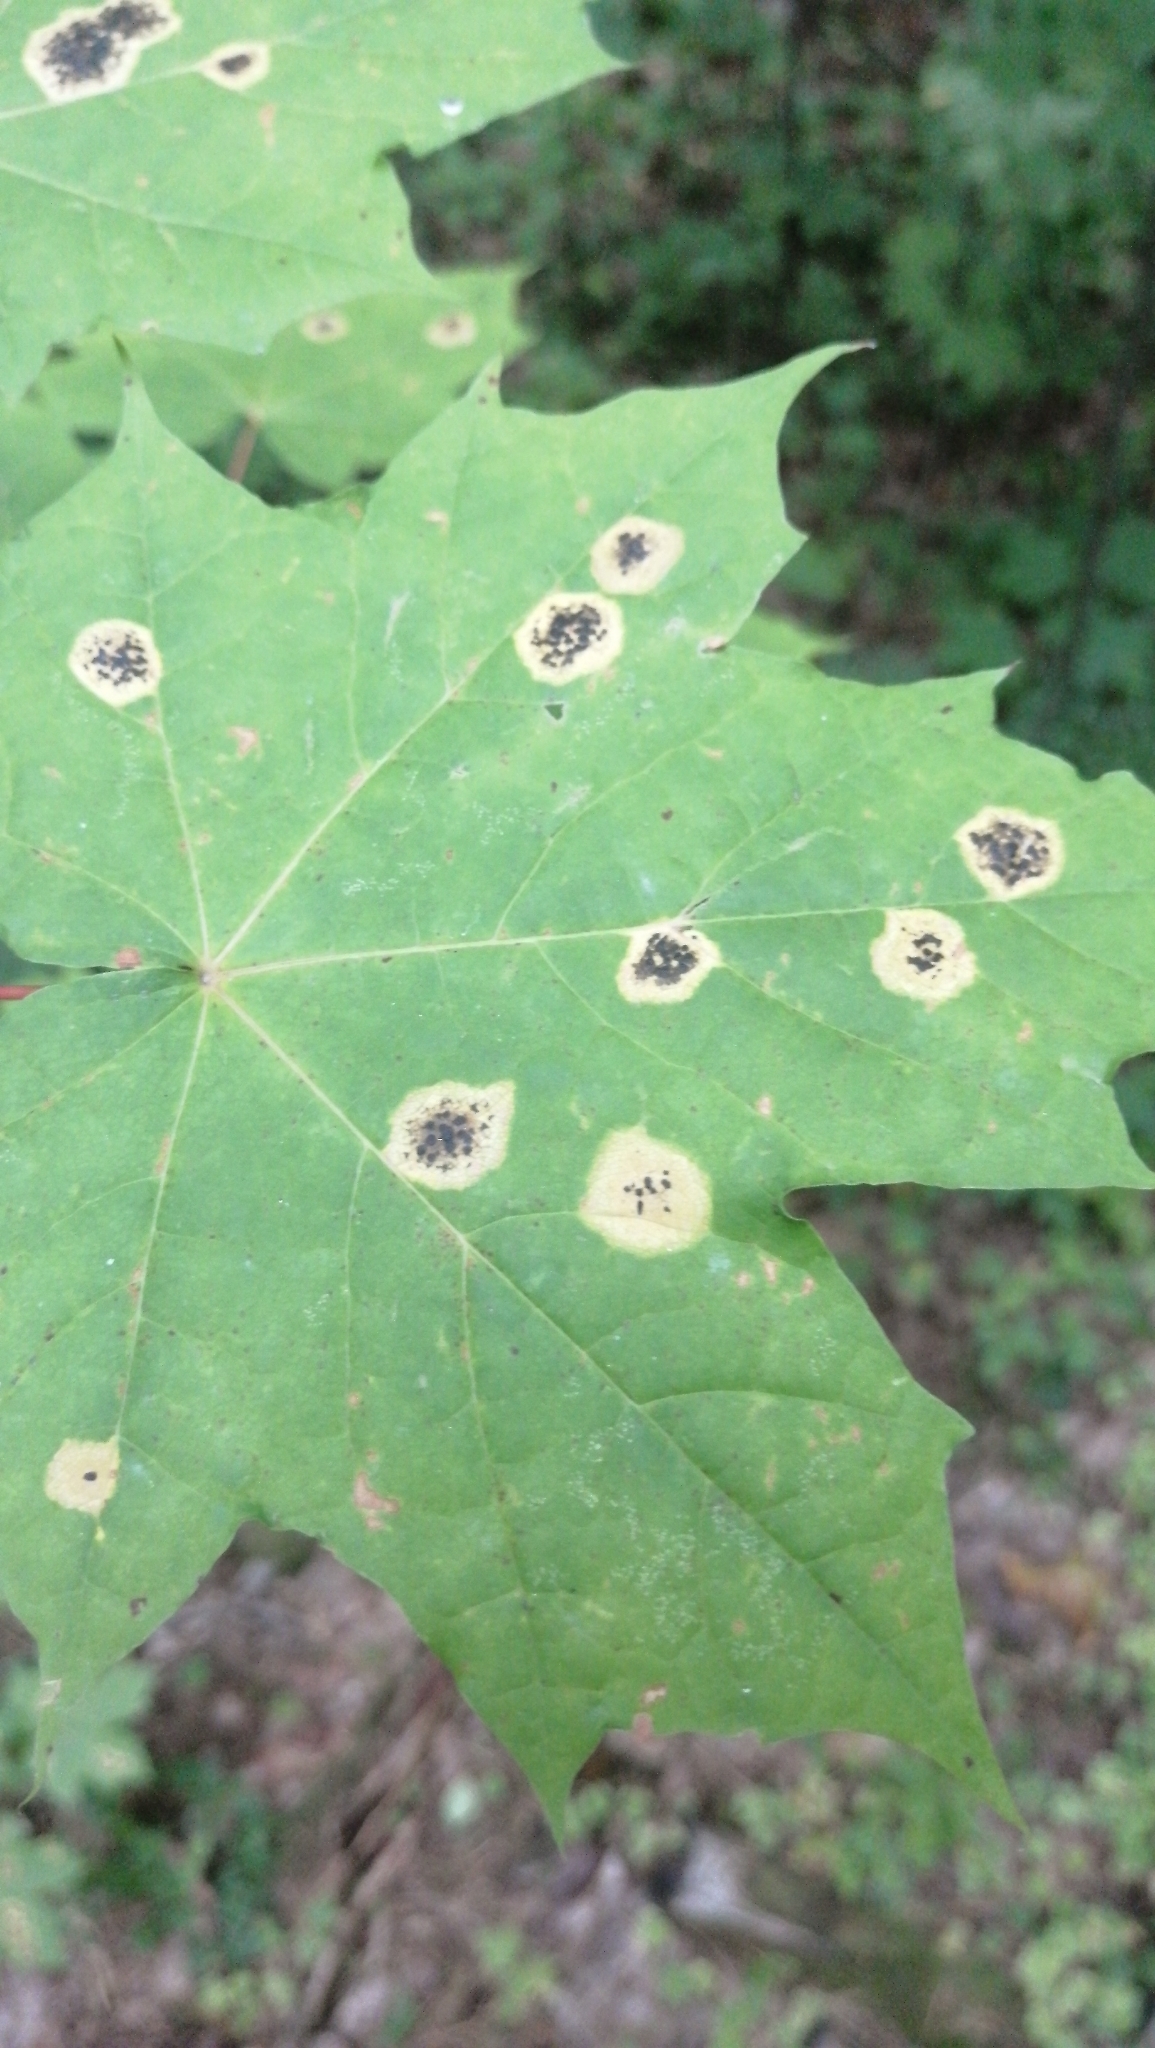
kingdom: Fungi
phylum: Ascomycota
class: Leotiomycetes
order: Rhytismatales
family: Rhytismataceae
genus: Rhytisma
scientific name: Rhytisma acerinum
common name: European tar spot
